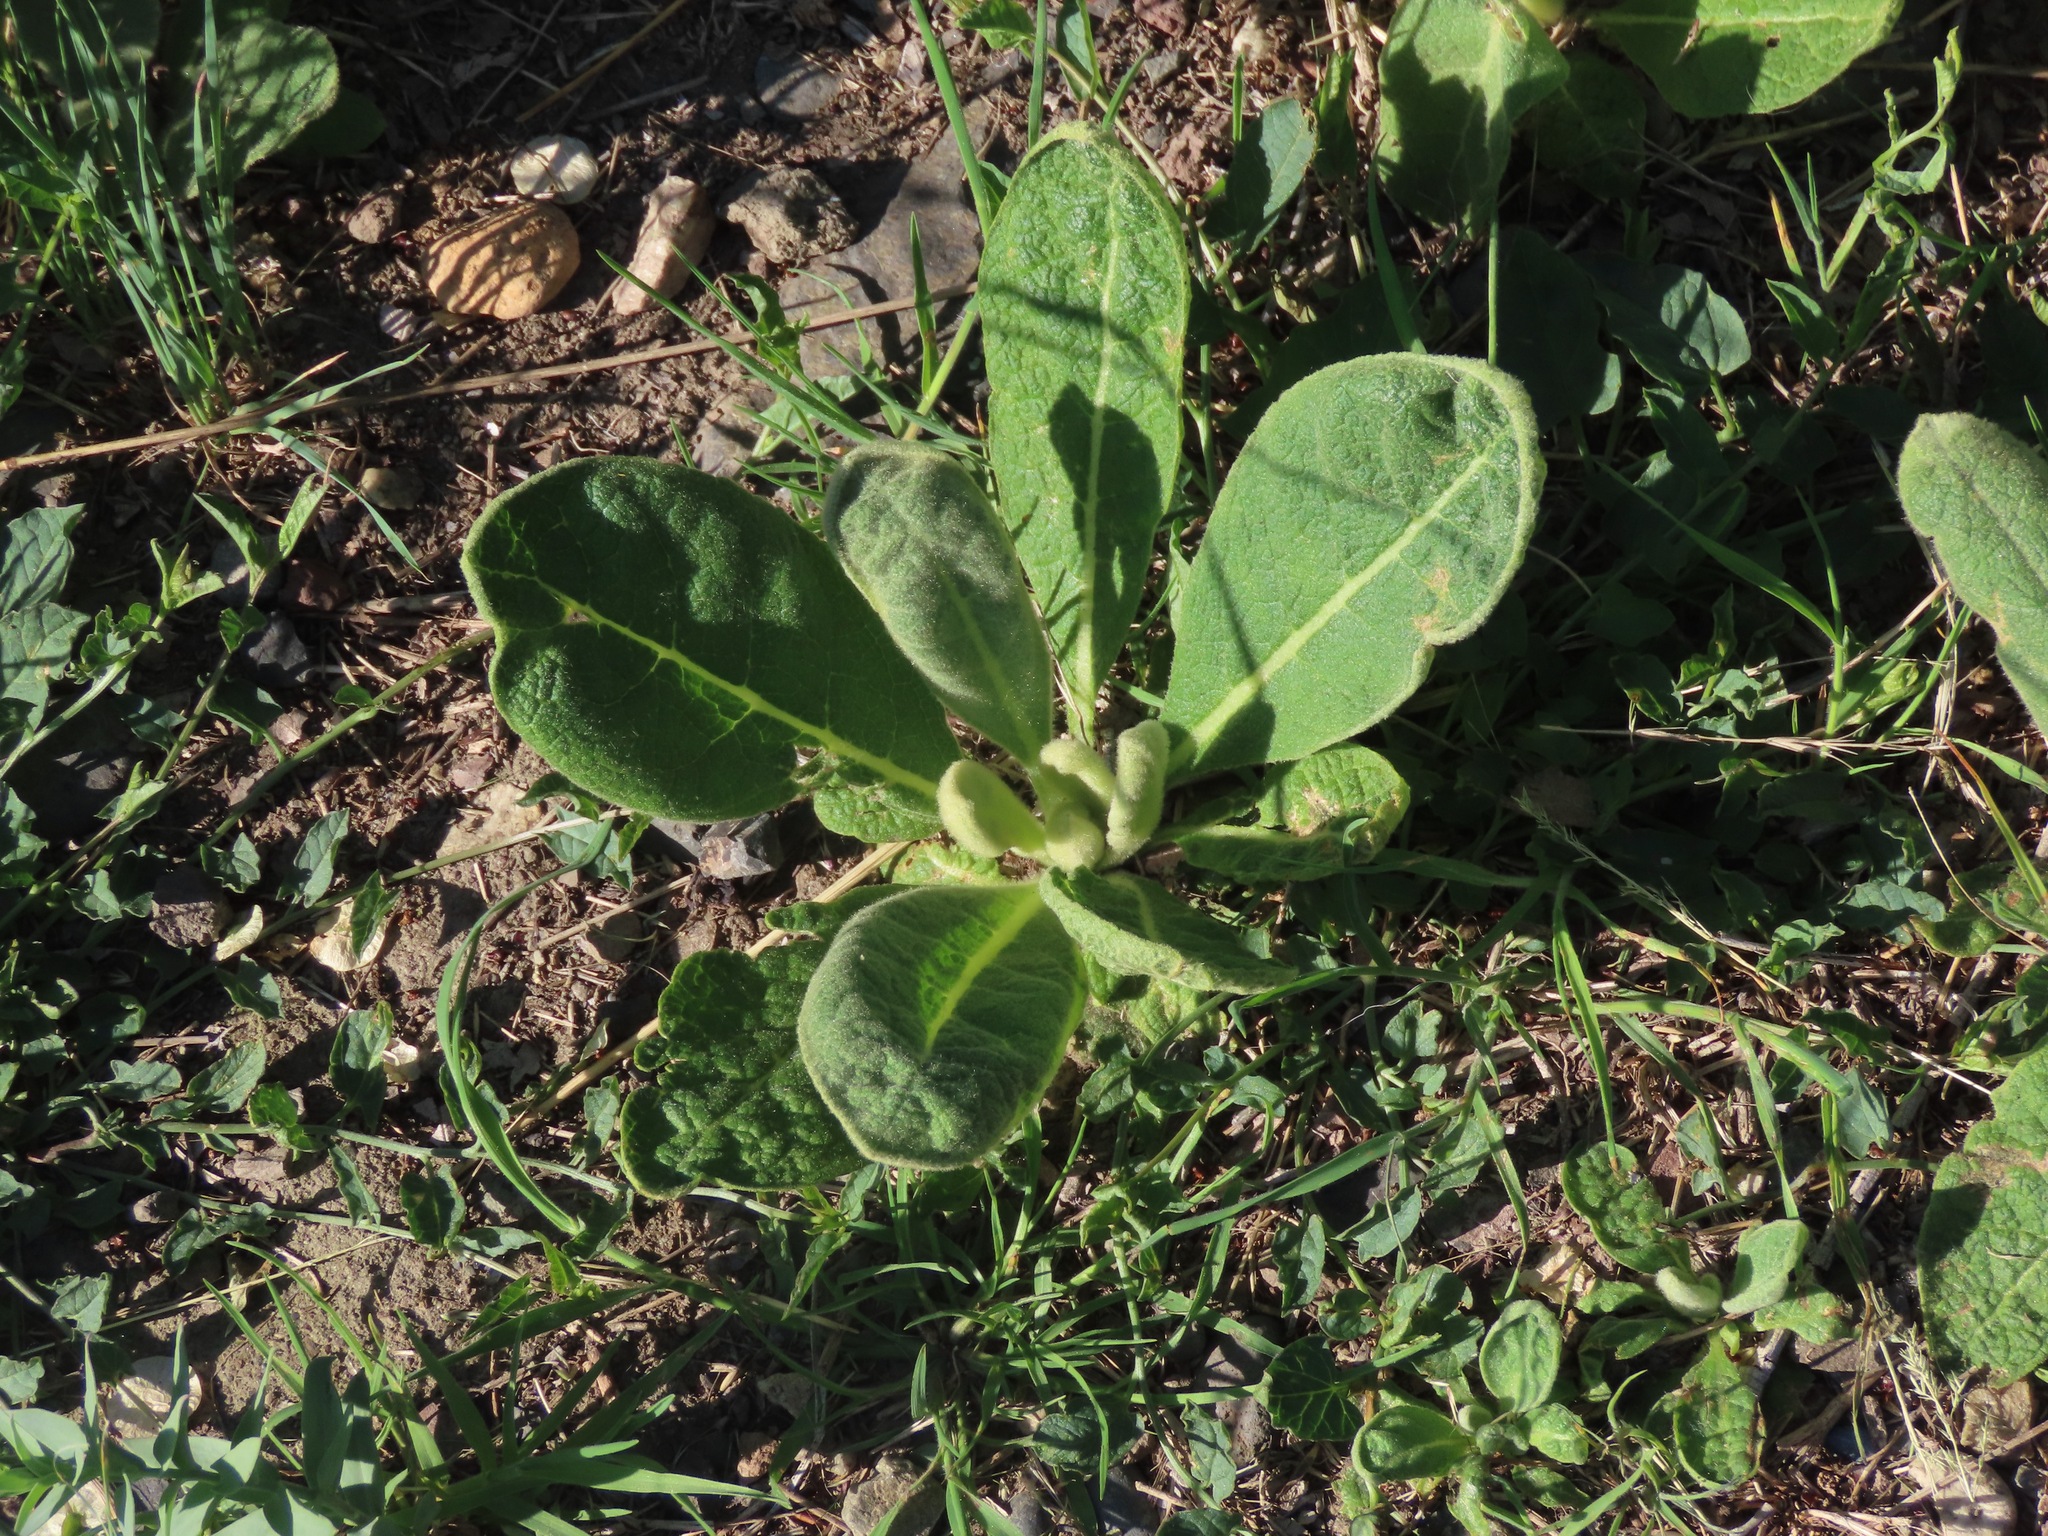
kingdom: Plantae
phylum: Tracheophyta
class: Magnoliopsida
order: Lamiales
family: Scrophulariaceae
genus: Verbascum
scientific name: Verbascum thapsus
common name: Common mullein
